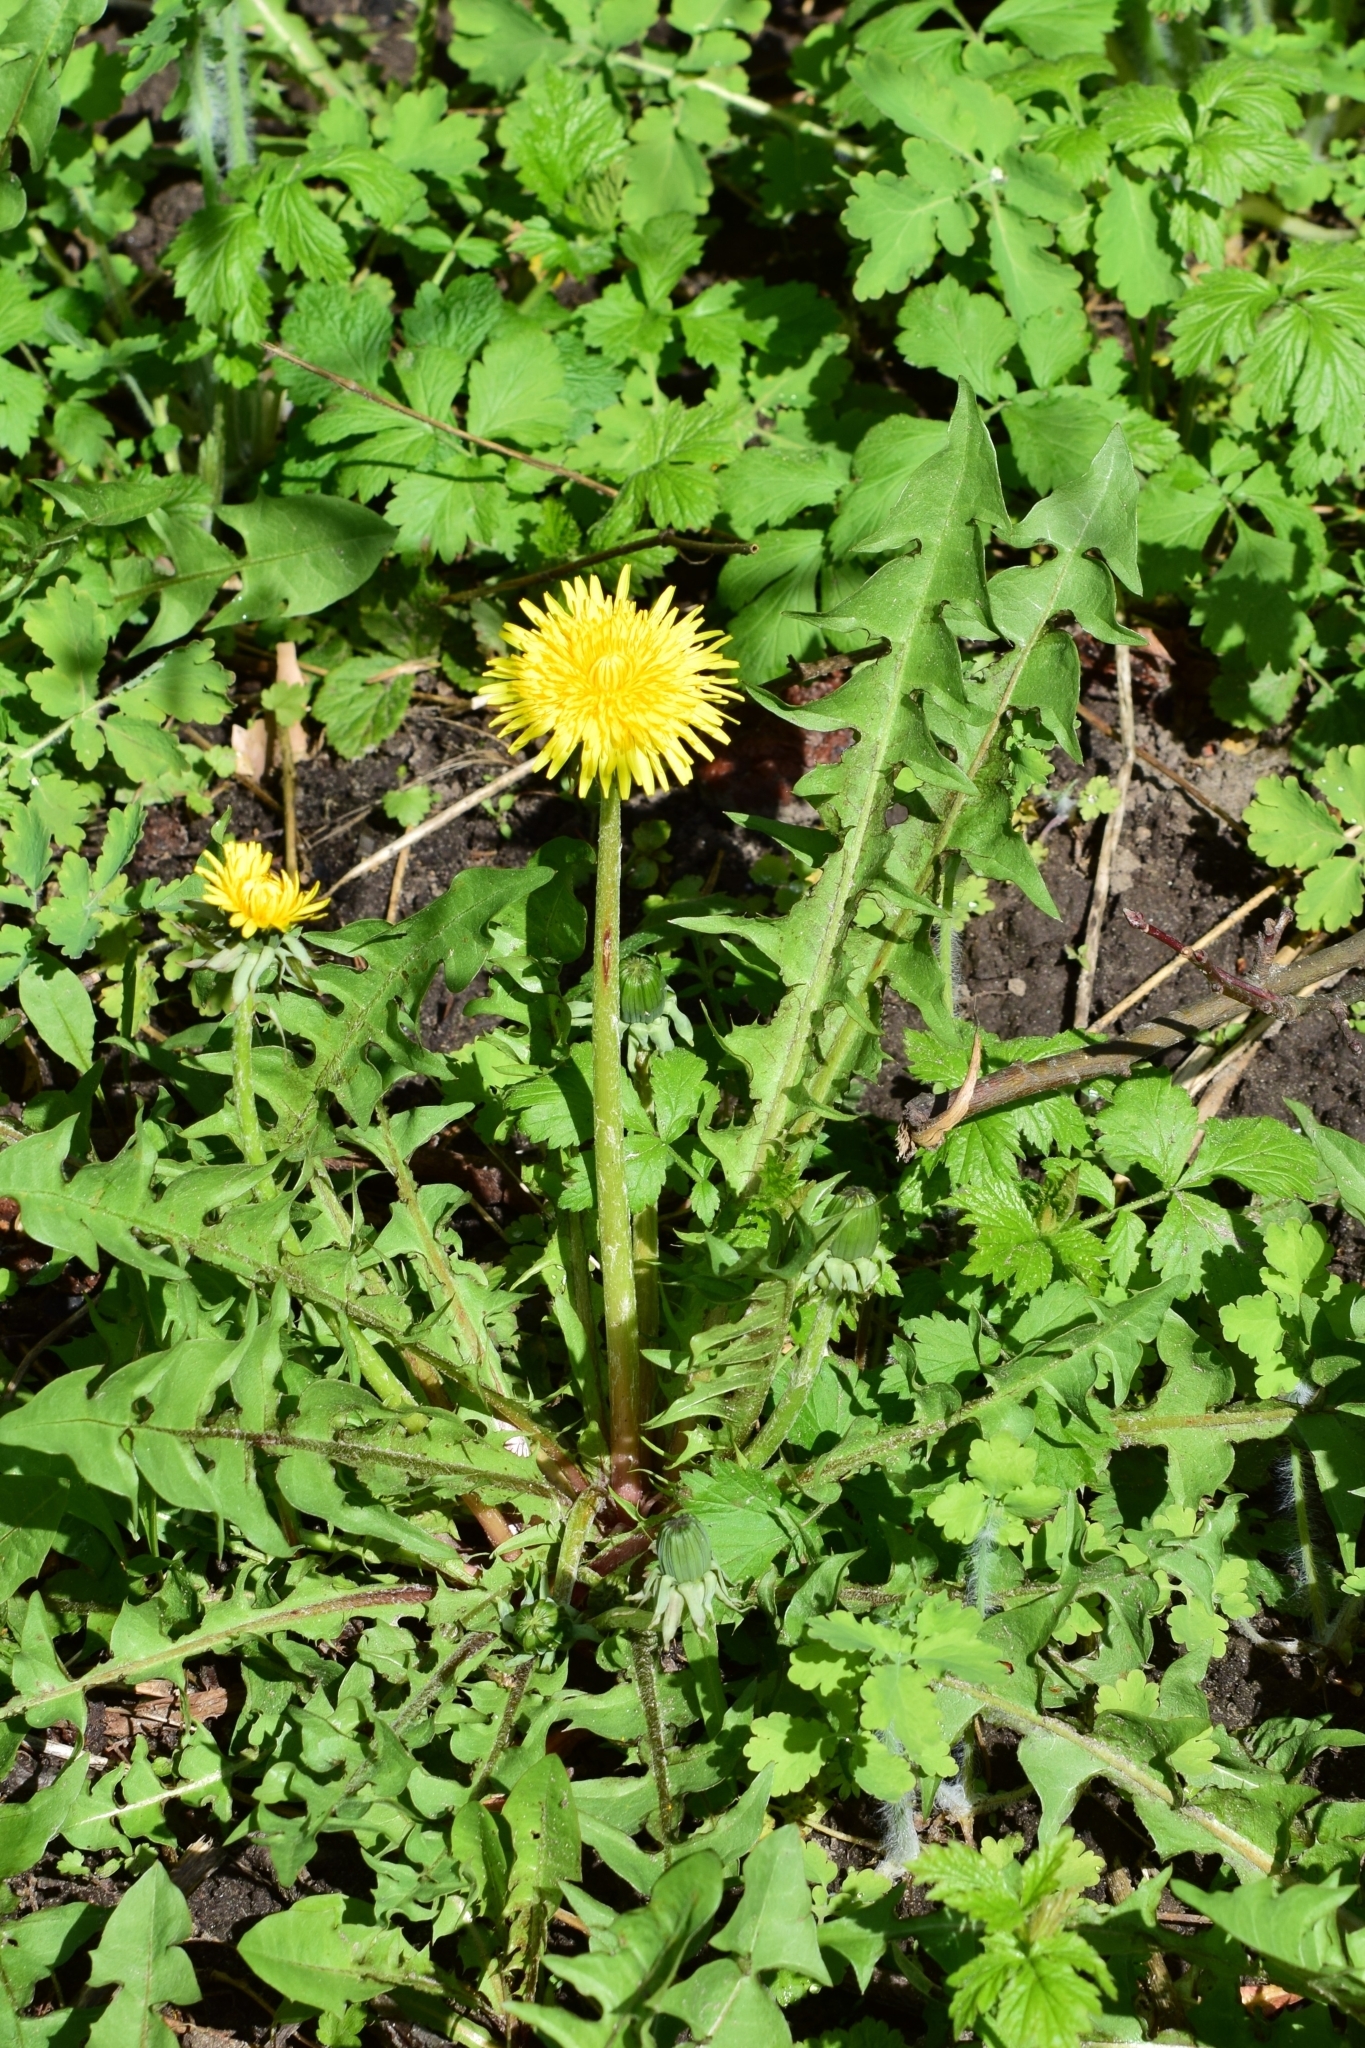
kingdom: Plantae
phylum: Tracheophyta
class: Magnoliopsida
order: Asterales
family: Asteraceae
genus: Taraxacum
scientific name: Taraxacum officinale
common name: Common dandelion
